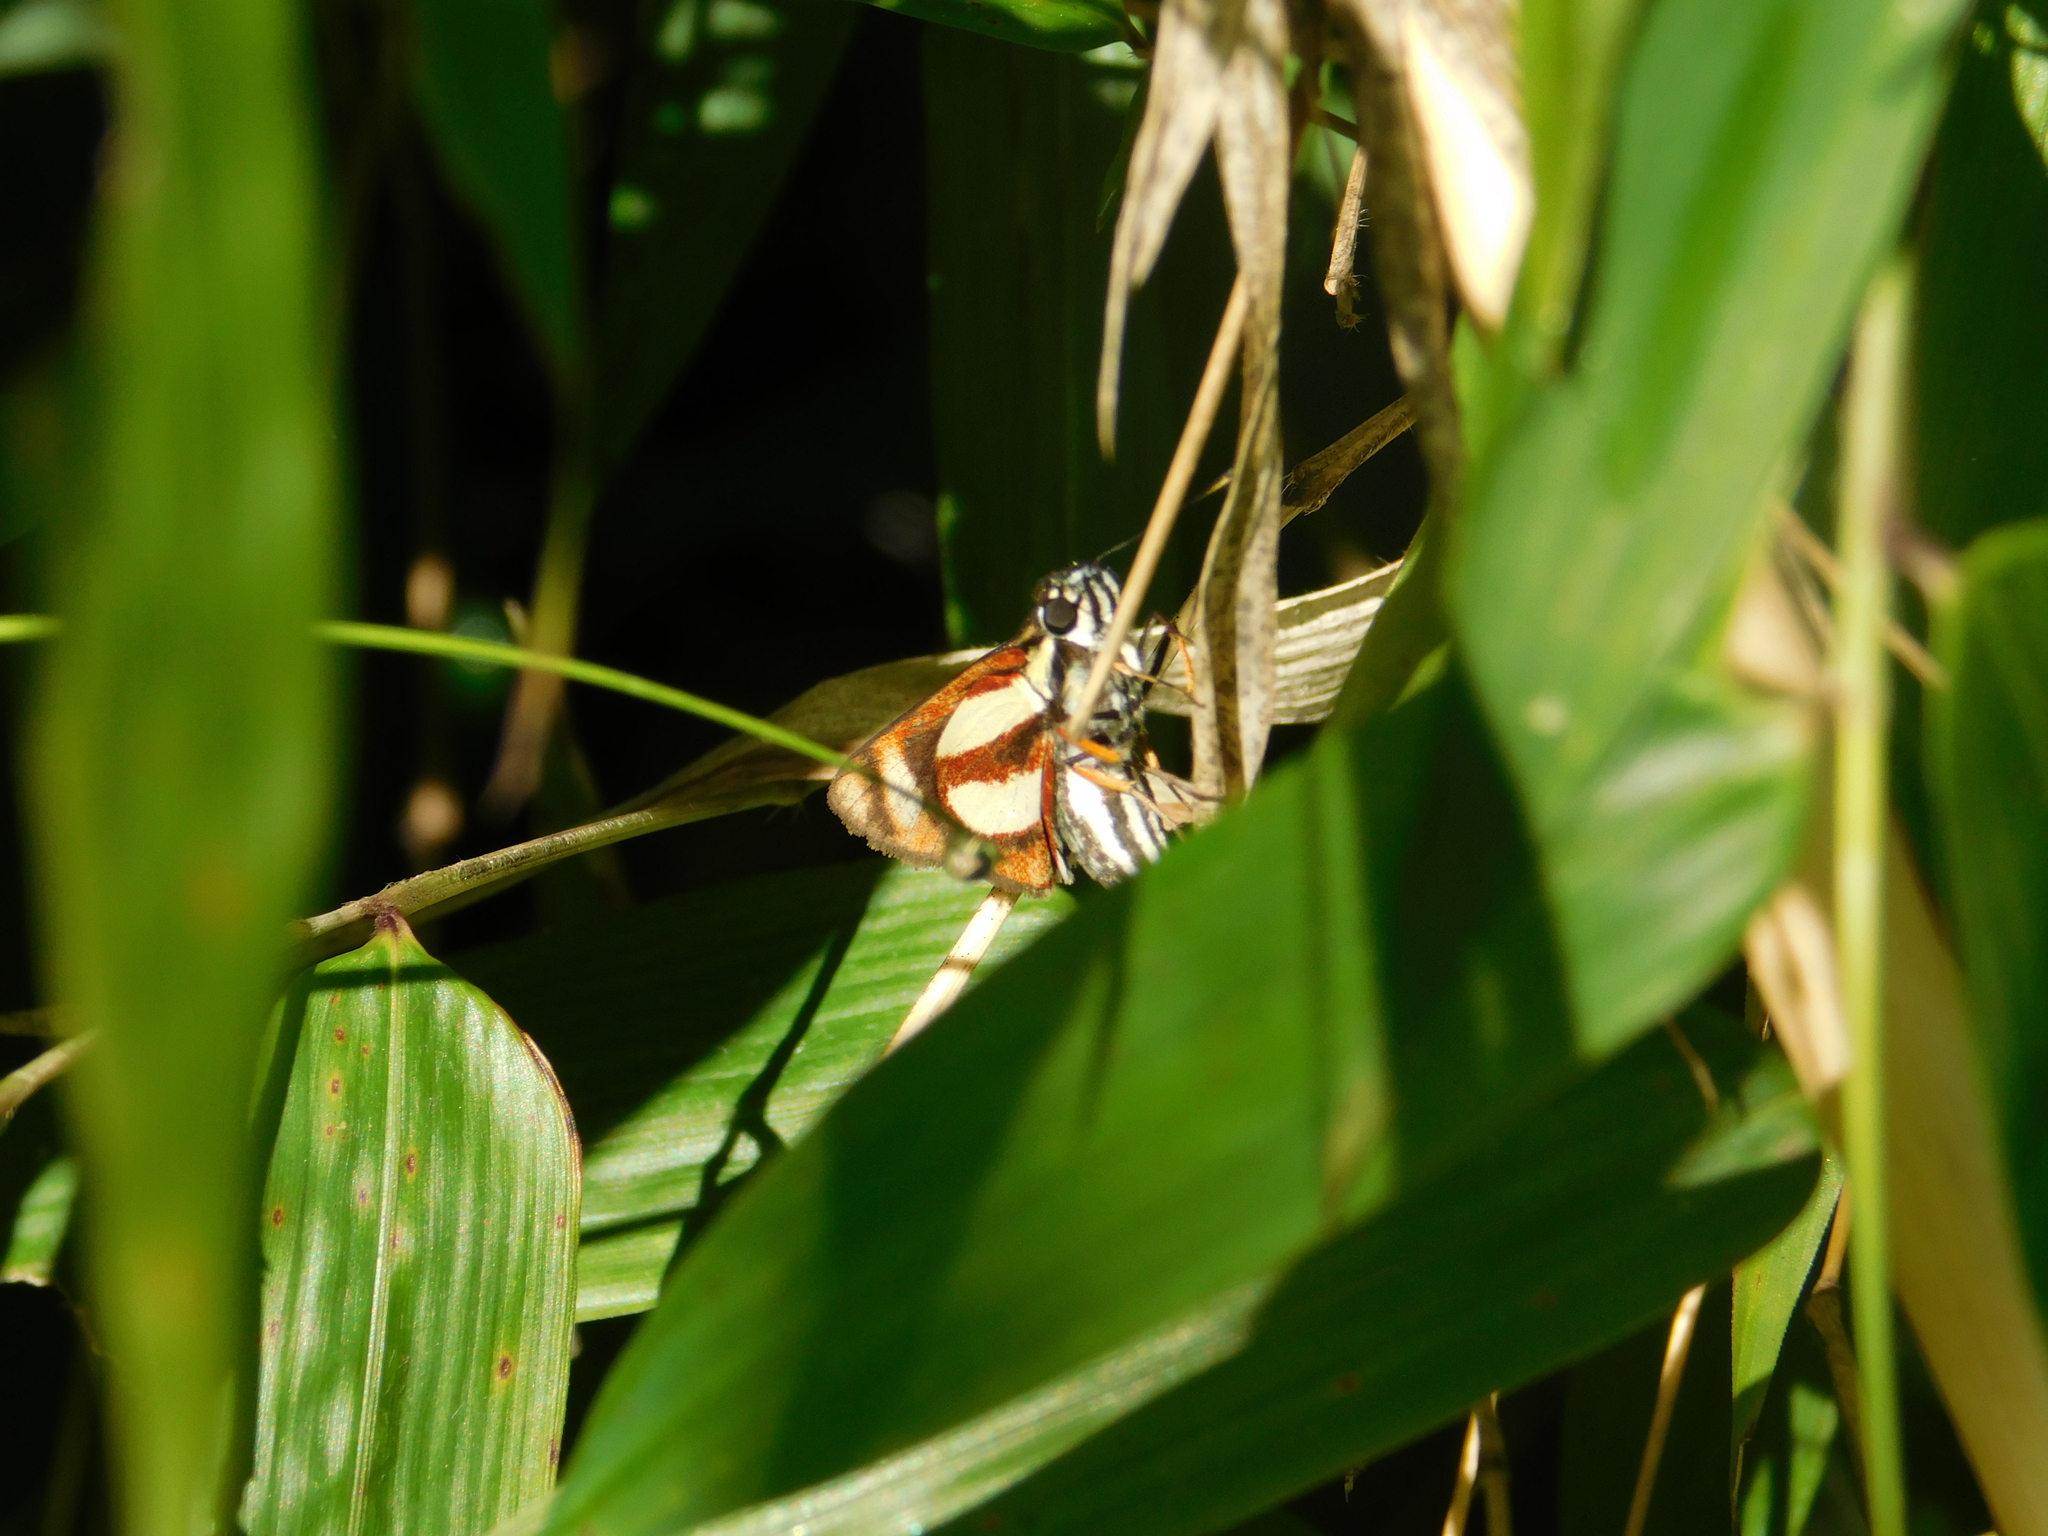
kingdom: Animalia
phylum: Arthropoda
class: Insecta
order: Lepidoptera
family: Hesperiidae
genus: Propertius
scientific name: Propertius propertius
